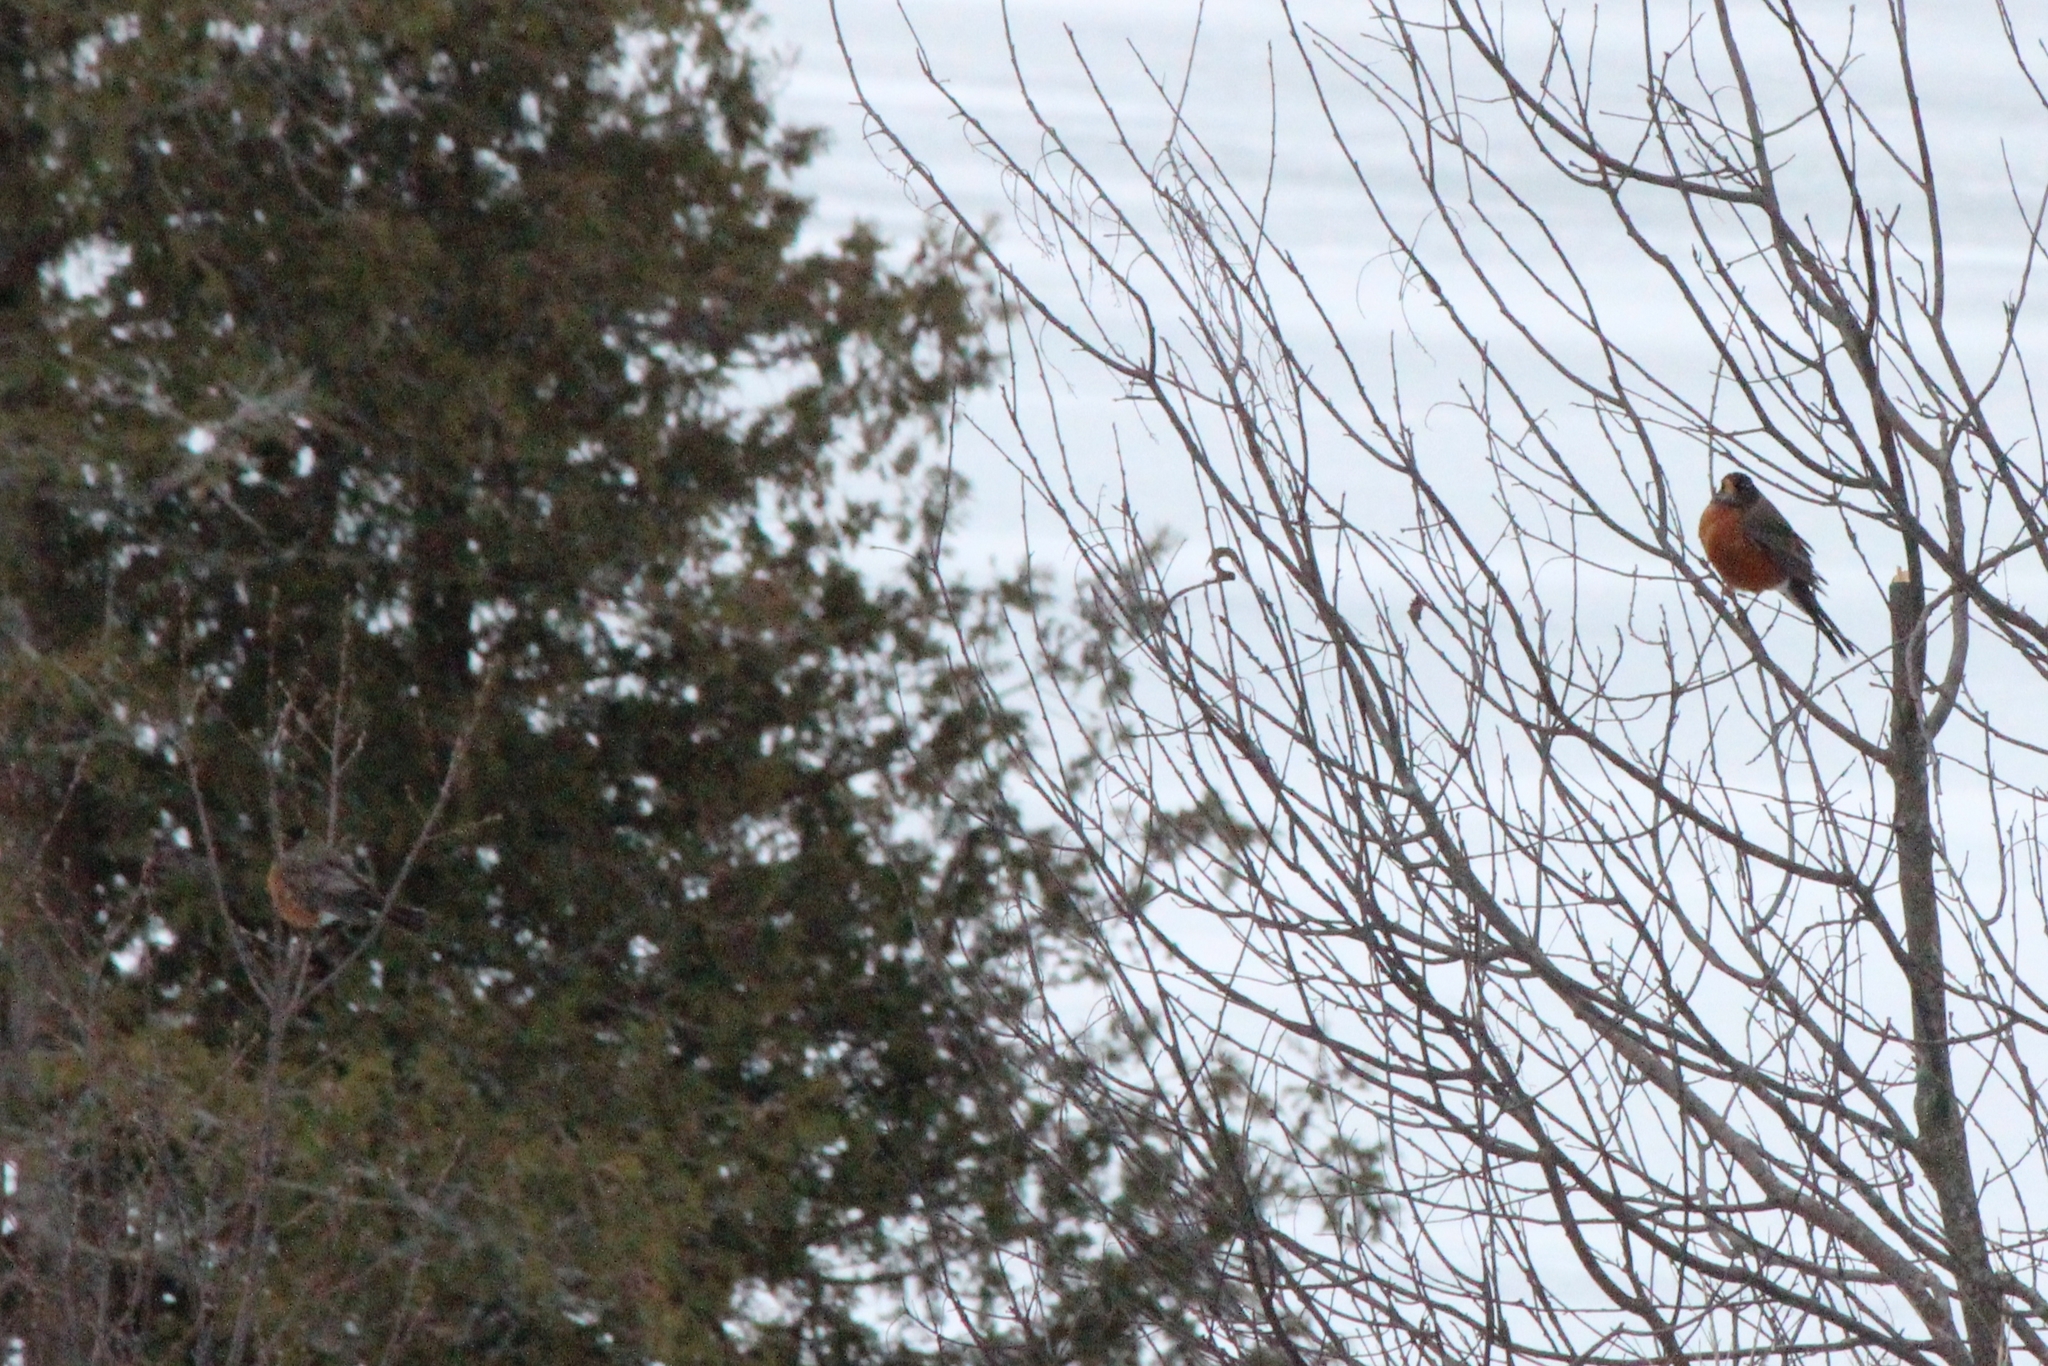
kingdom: Animalia
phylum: Chordata
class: Aves
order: Passeriformes
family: Turdidae
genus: Turdus
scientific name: Turdus migratorius
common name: American robin
